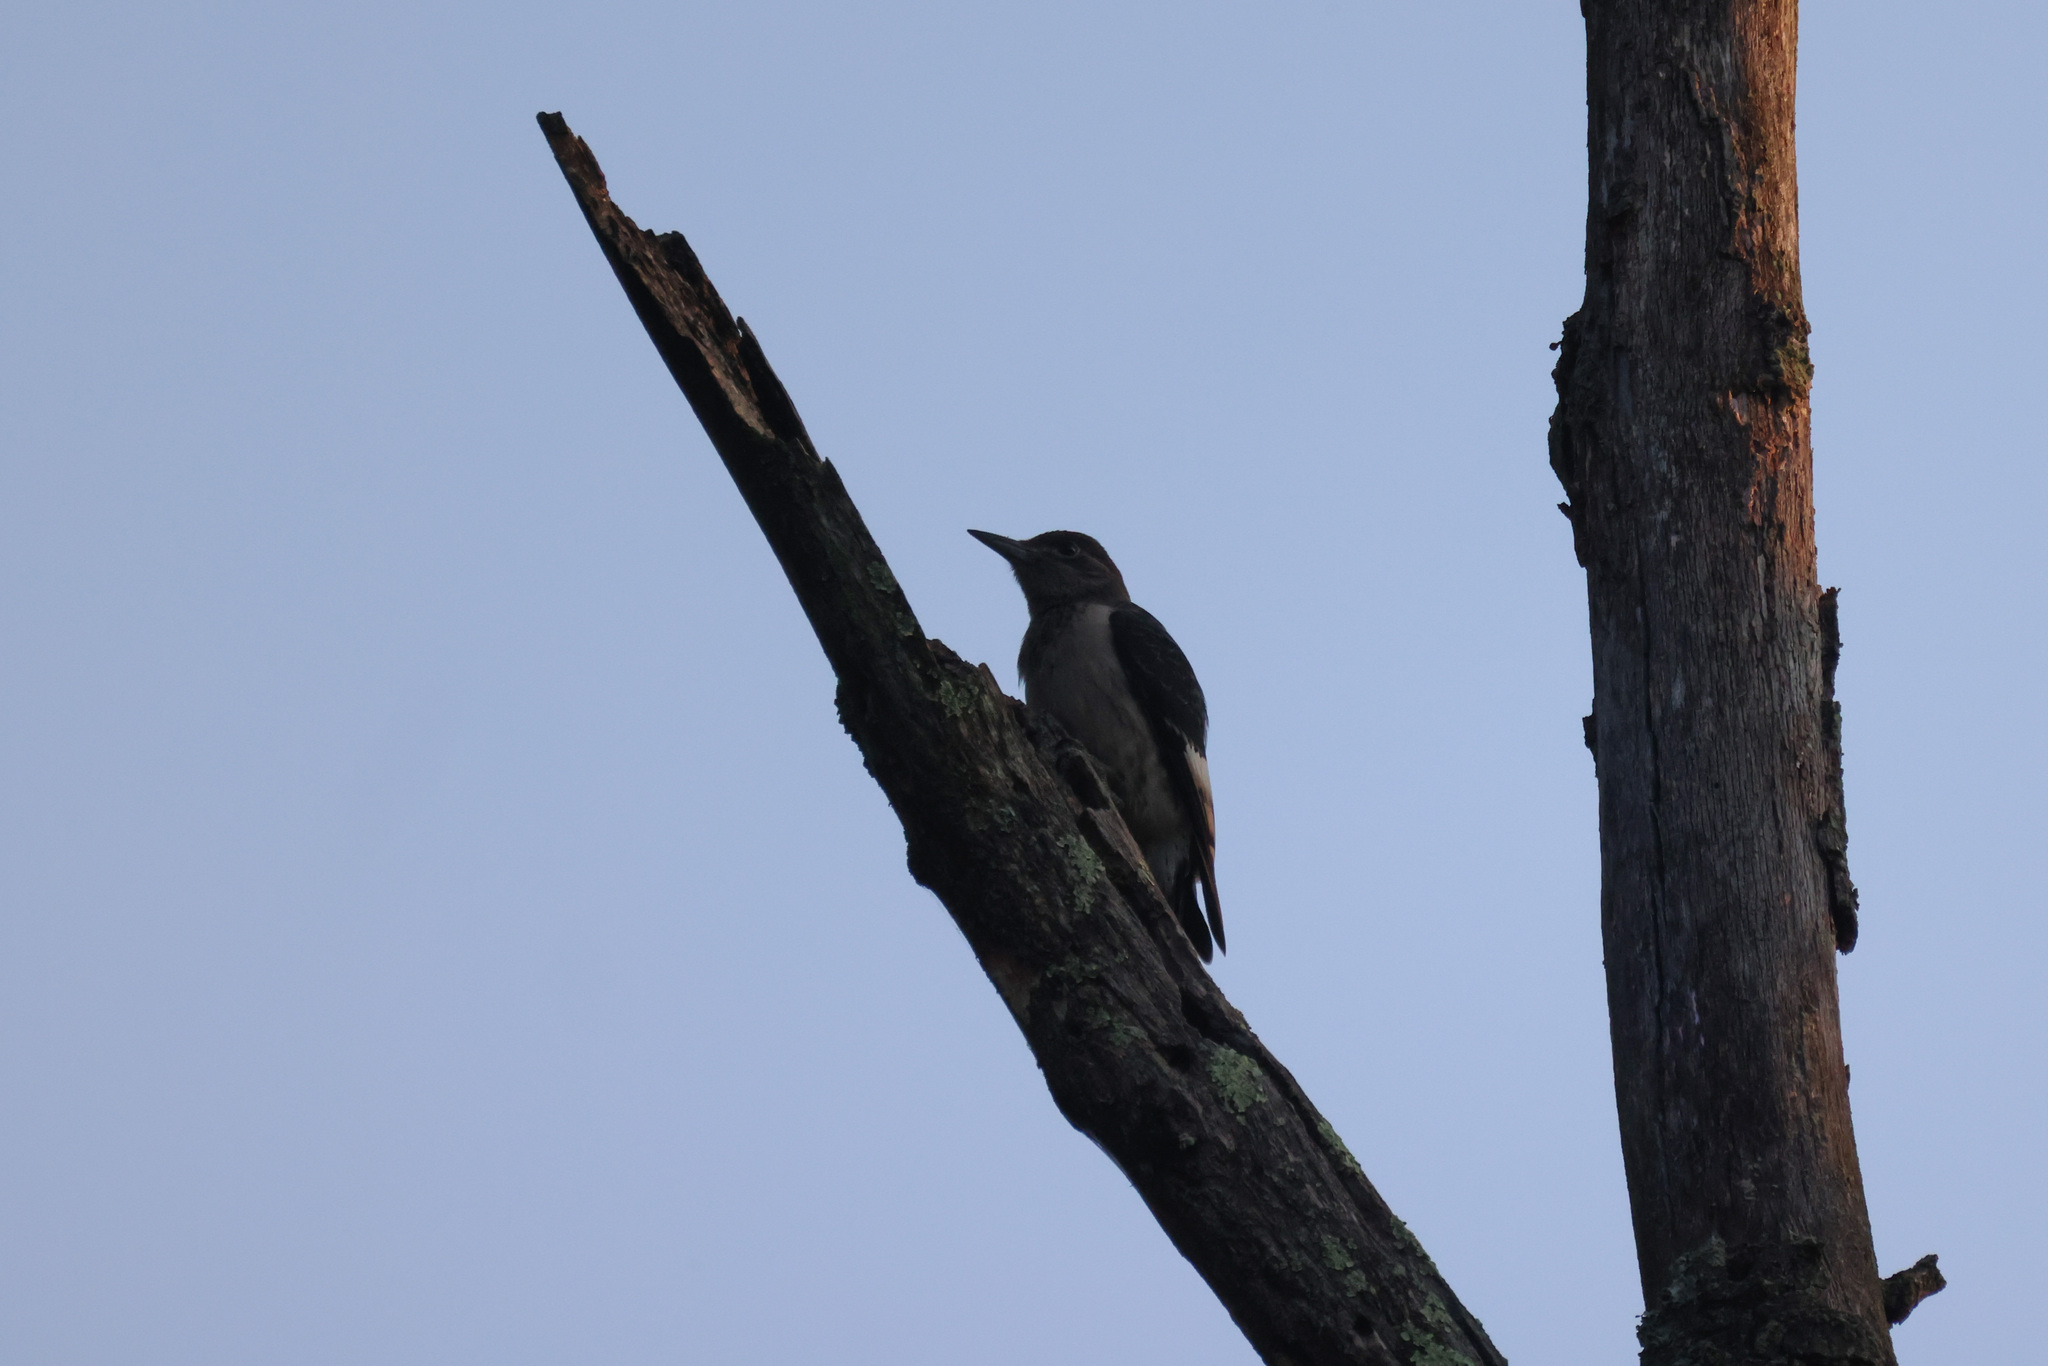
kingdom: Animalia
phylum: Chordata
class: Aves
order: Piciformes
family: Picidae
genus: Melanerpes
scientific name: Melanerpes erythrocephalus
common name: Red-headed woodpecker
